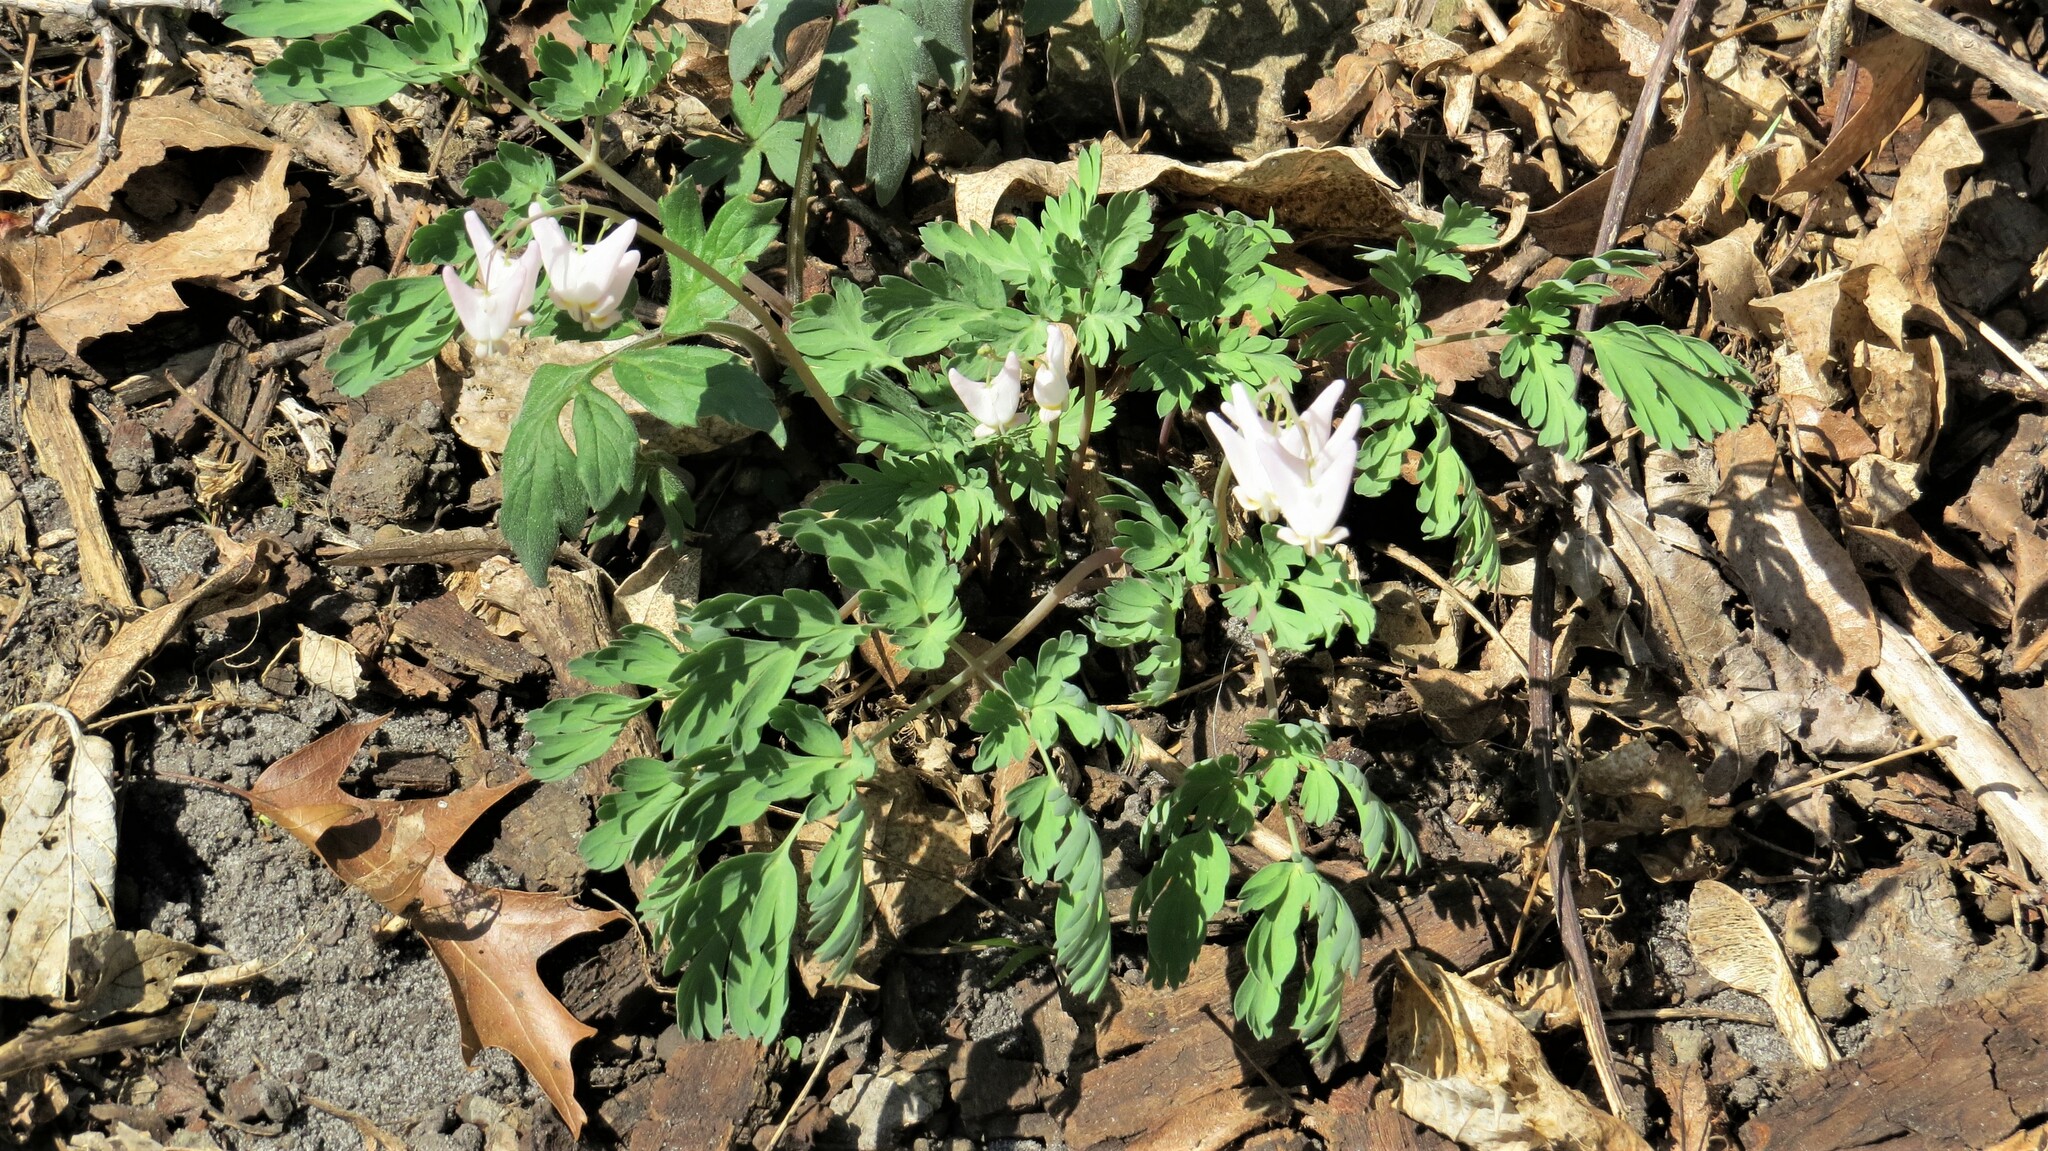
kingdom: Plantae
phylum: Tracheophyta
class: Magnoliopsida
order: Ranunculales
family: Papaveraceae
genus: Dicentra
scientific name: Dicentra cucullaria
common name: Dutchman's breeches
